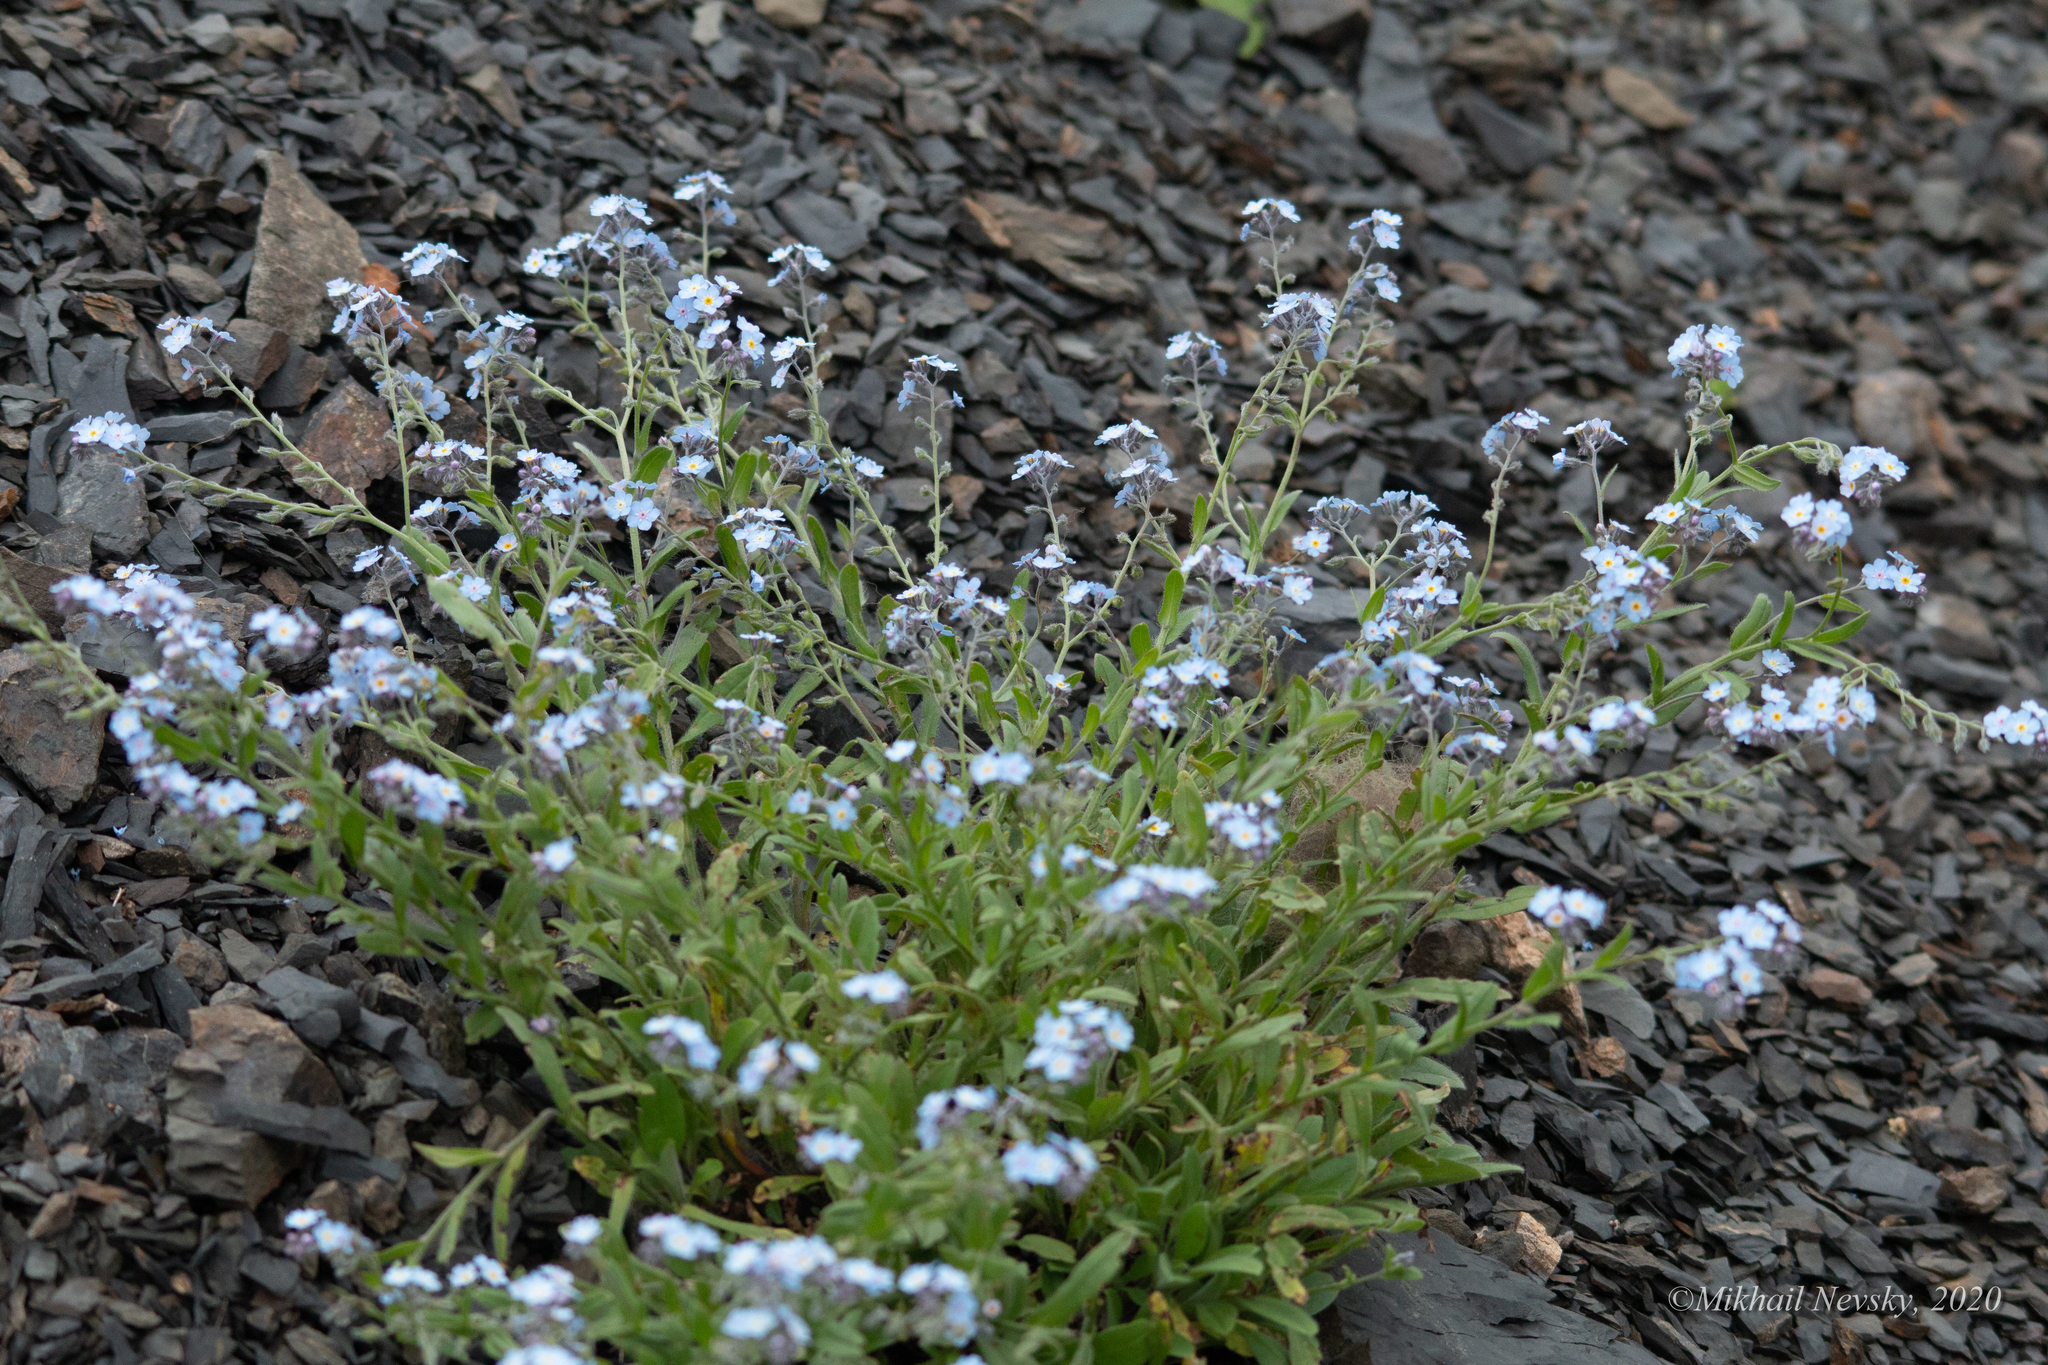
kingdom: Plantae
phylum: Tracheophyta
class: Magnoliopsida
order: Boraginales
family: Boraginaceae
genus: Myosotis
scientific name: Myosotis alpestris
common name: Alpine forget-me-not
